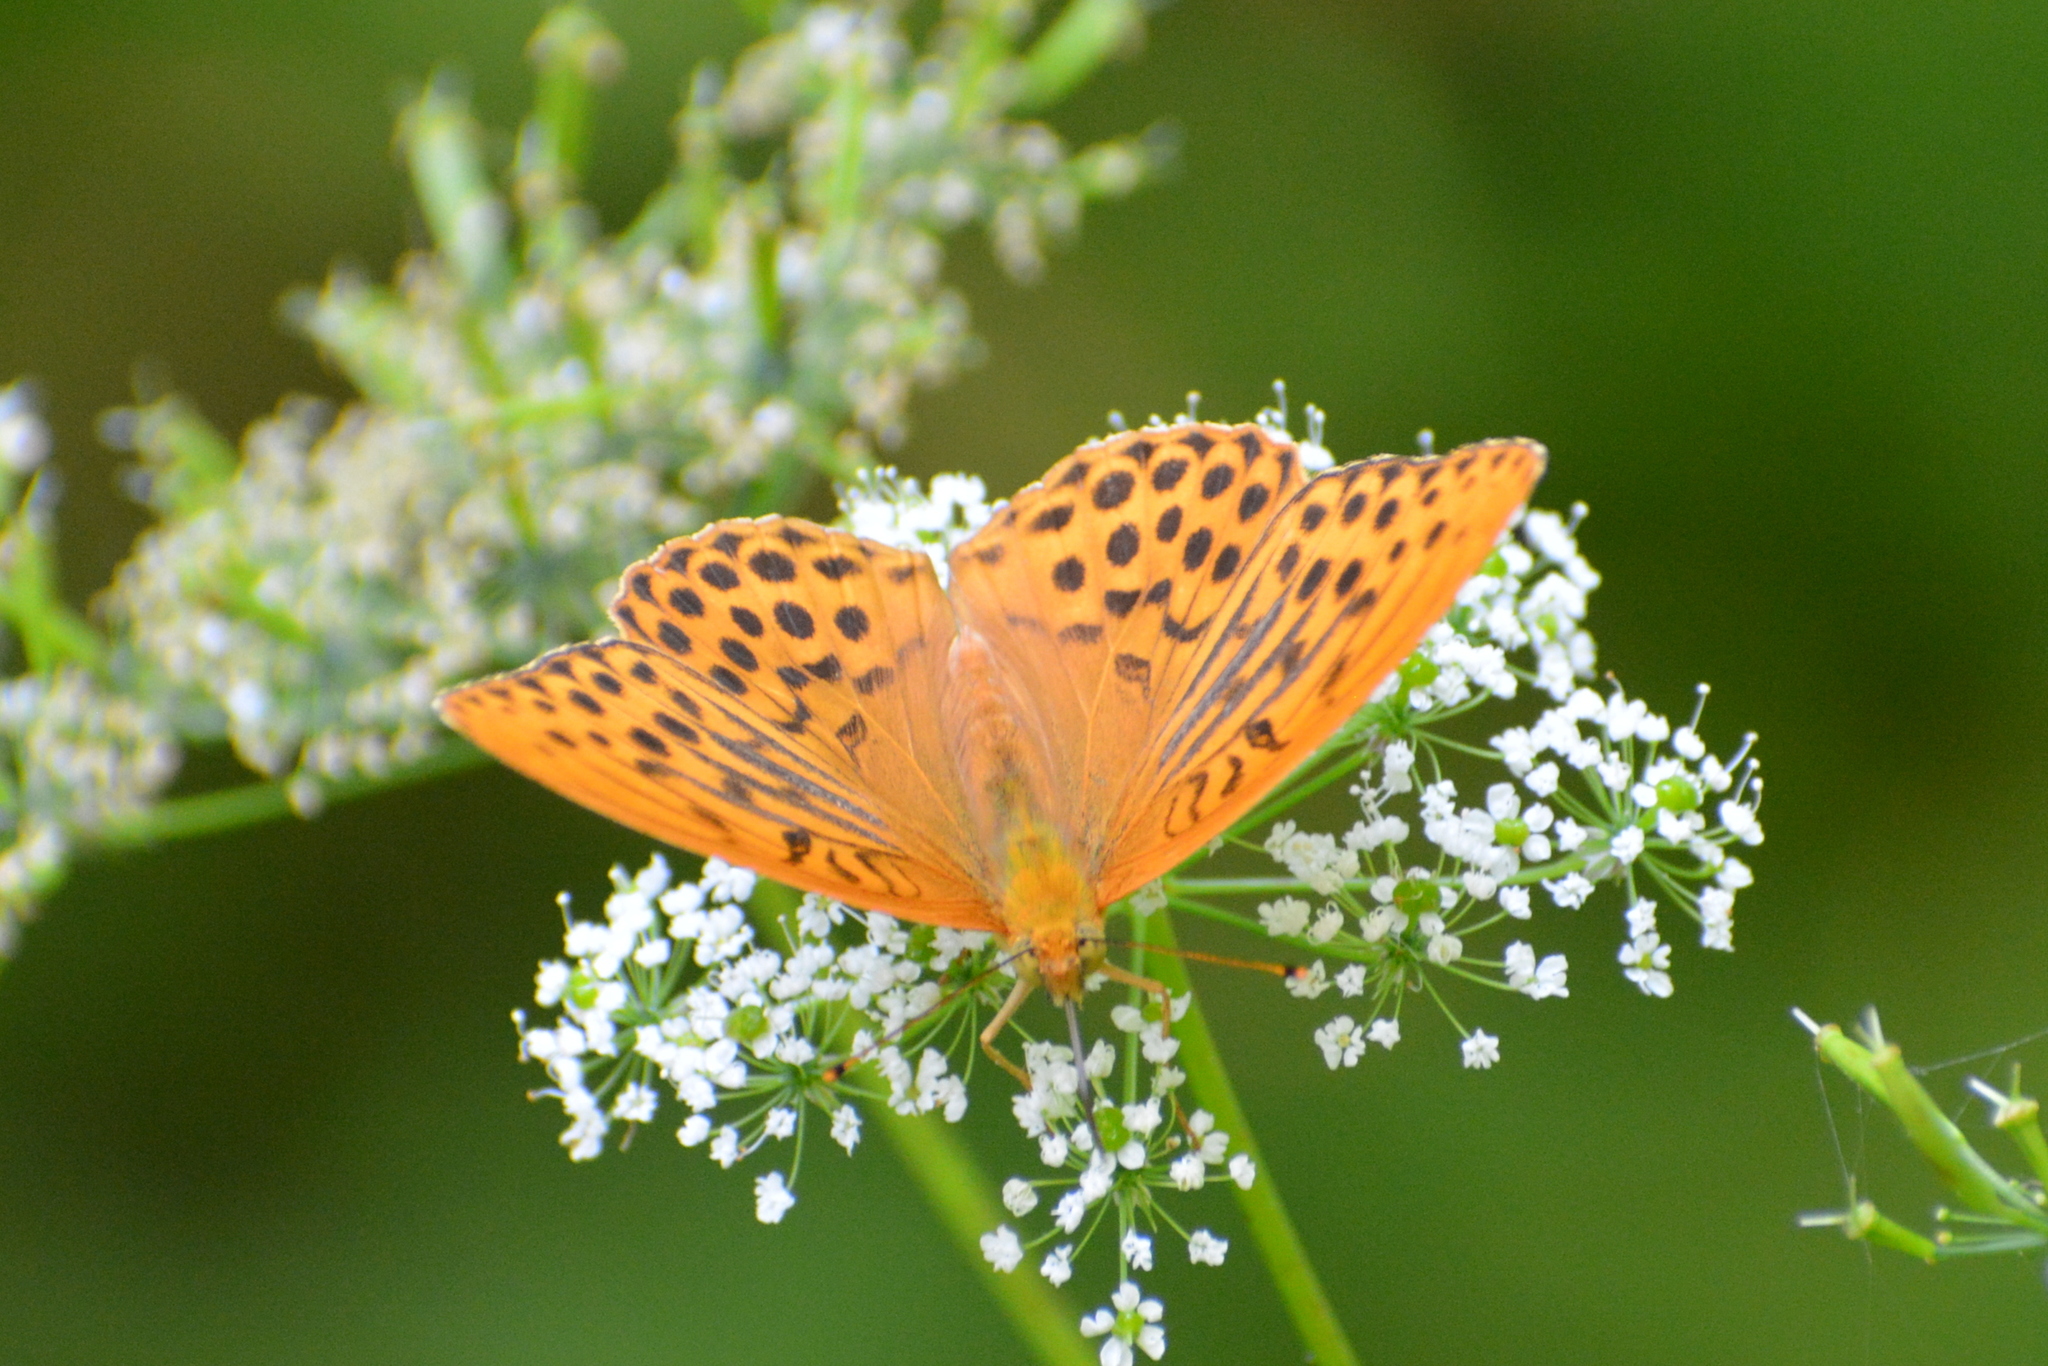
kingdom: Animalia
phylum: Arthropoda
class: Insecta
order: Lepidoptera
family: Nymphalidae
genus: Argynnis
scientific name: Argynnis paphia
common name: Silver-washed fritillary
